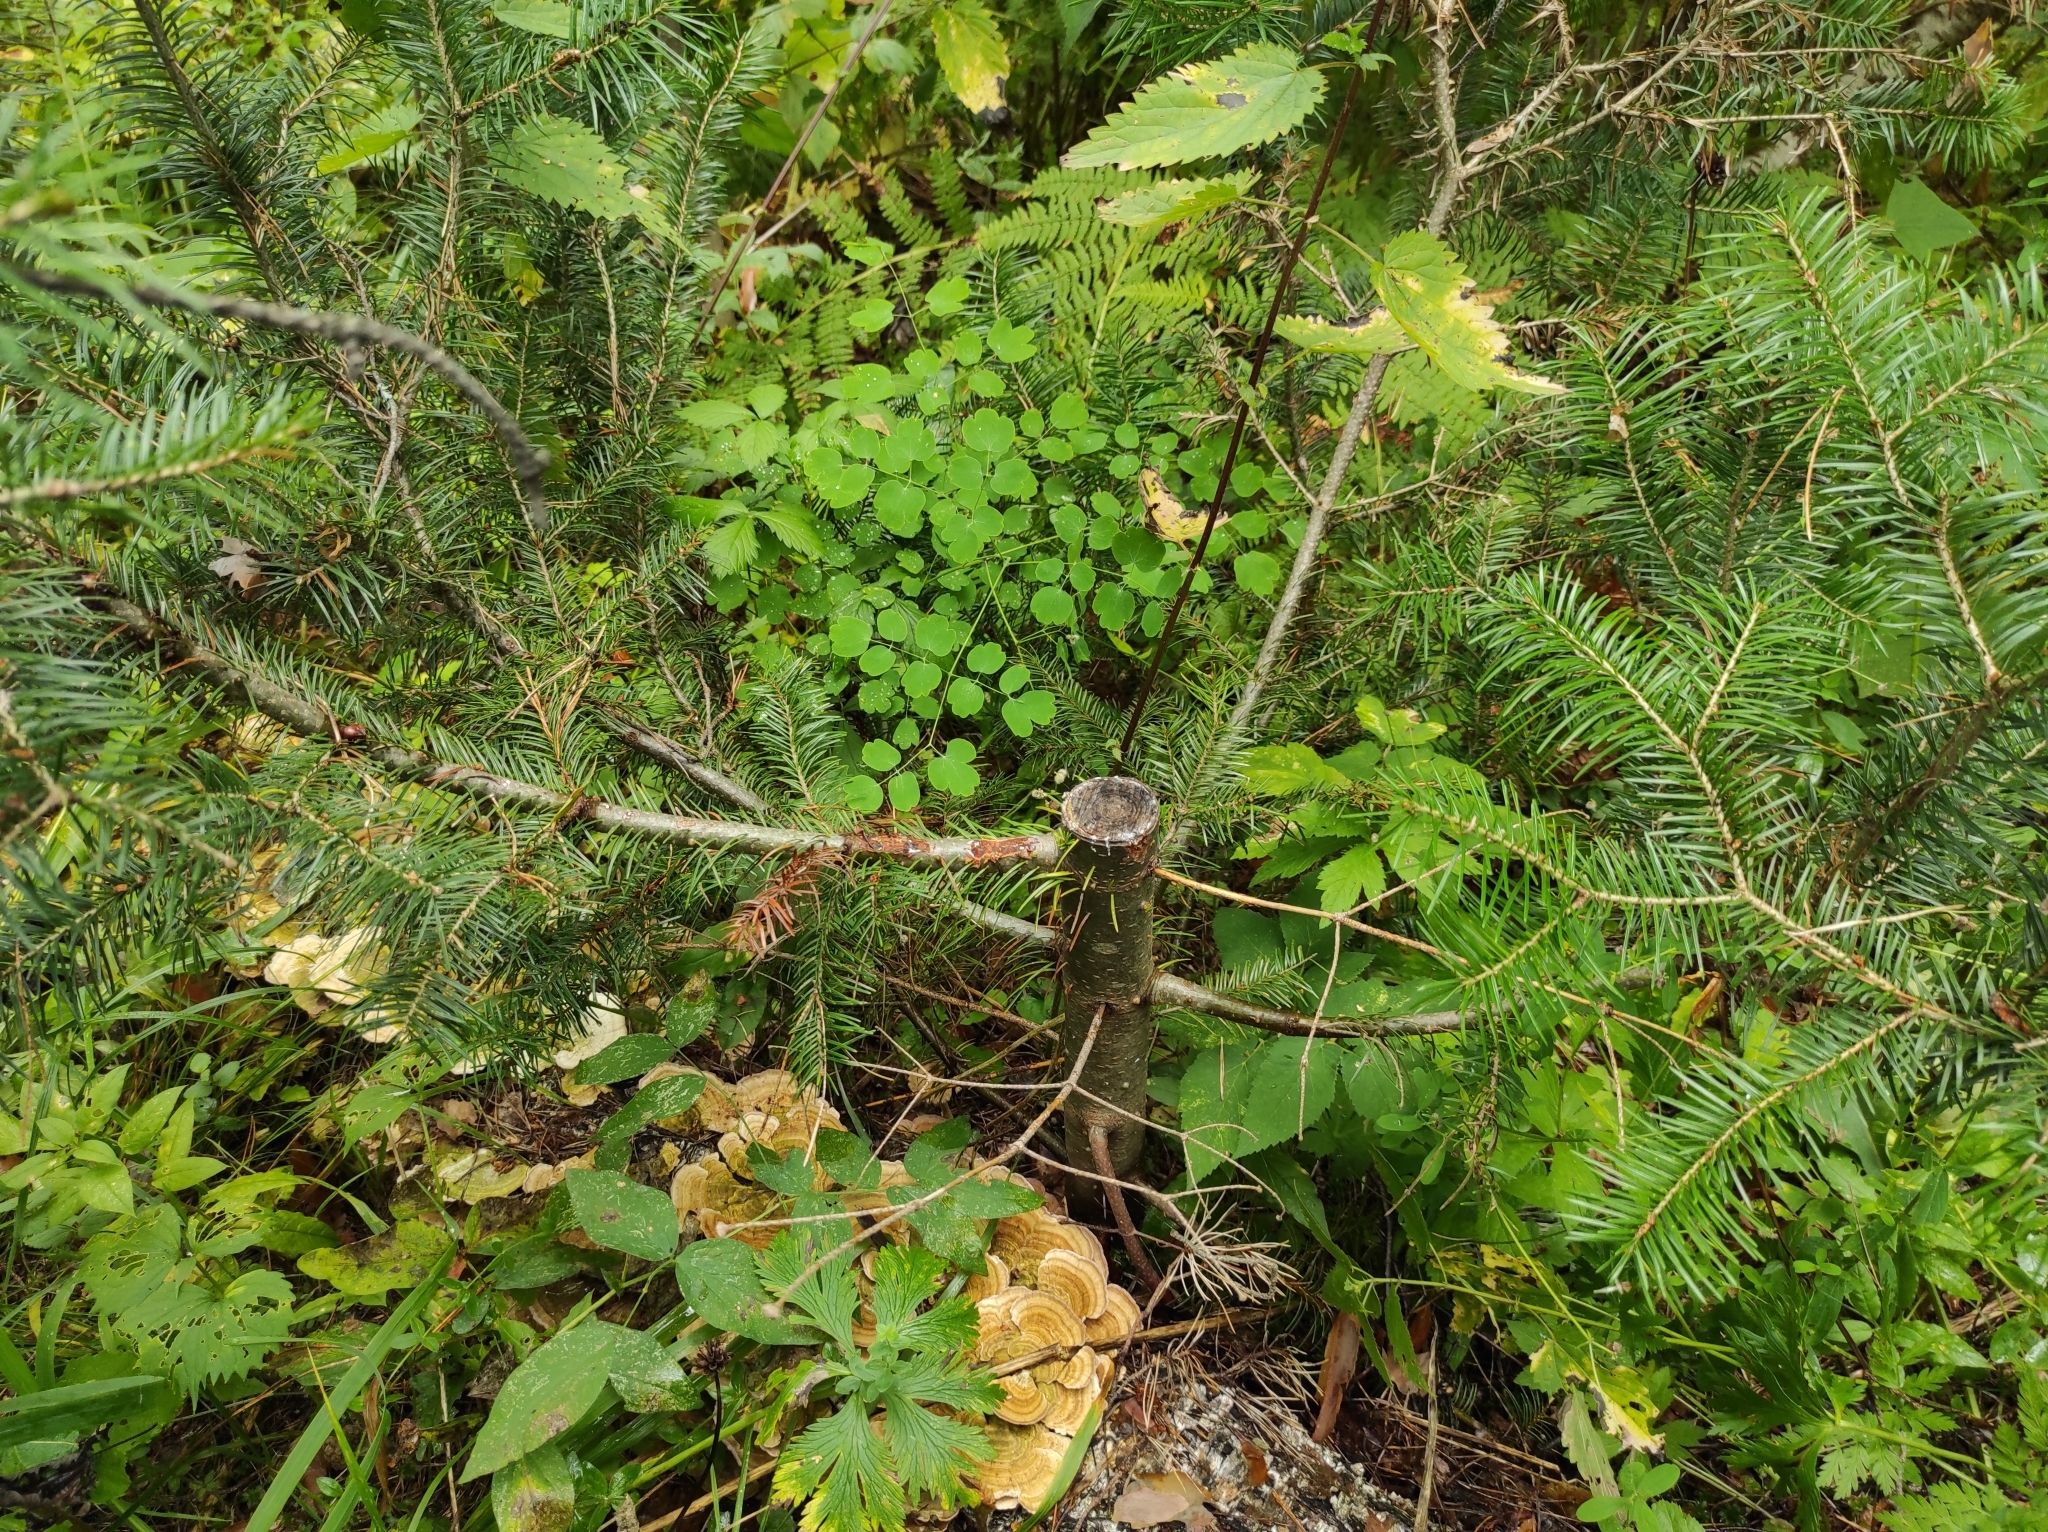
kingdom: Plantae
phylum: Tracheophyta
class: Pinopsida
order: Pinales
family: Pinaceae
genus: Abies
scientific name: Abies sibirica
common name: Siberian fir
